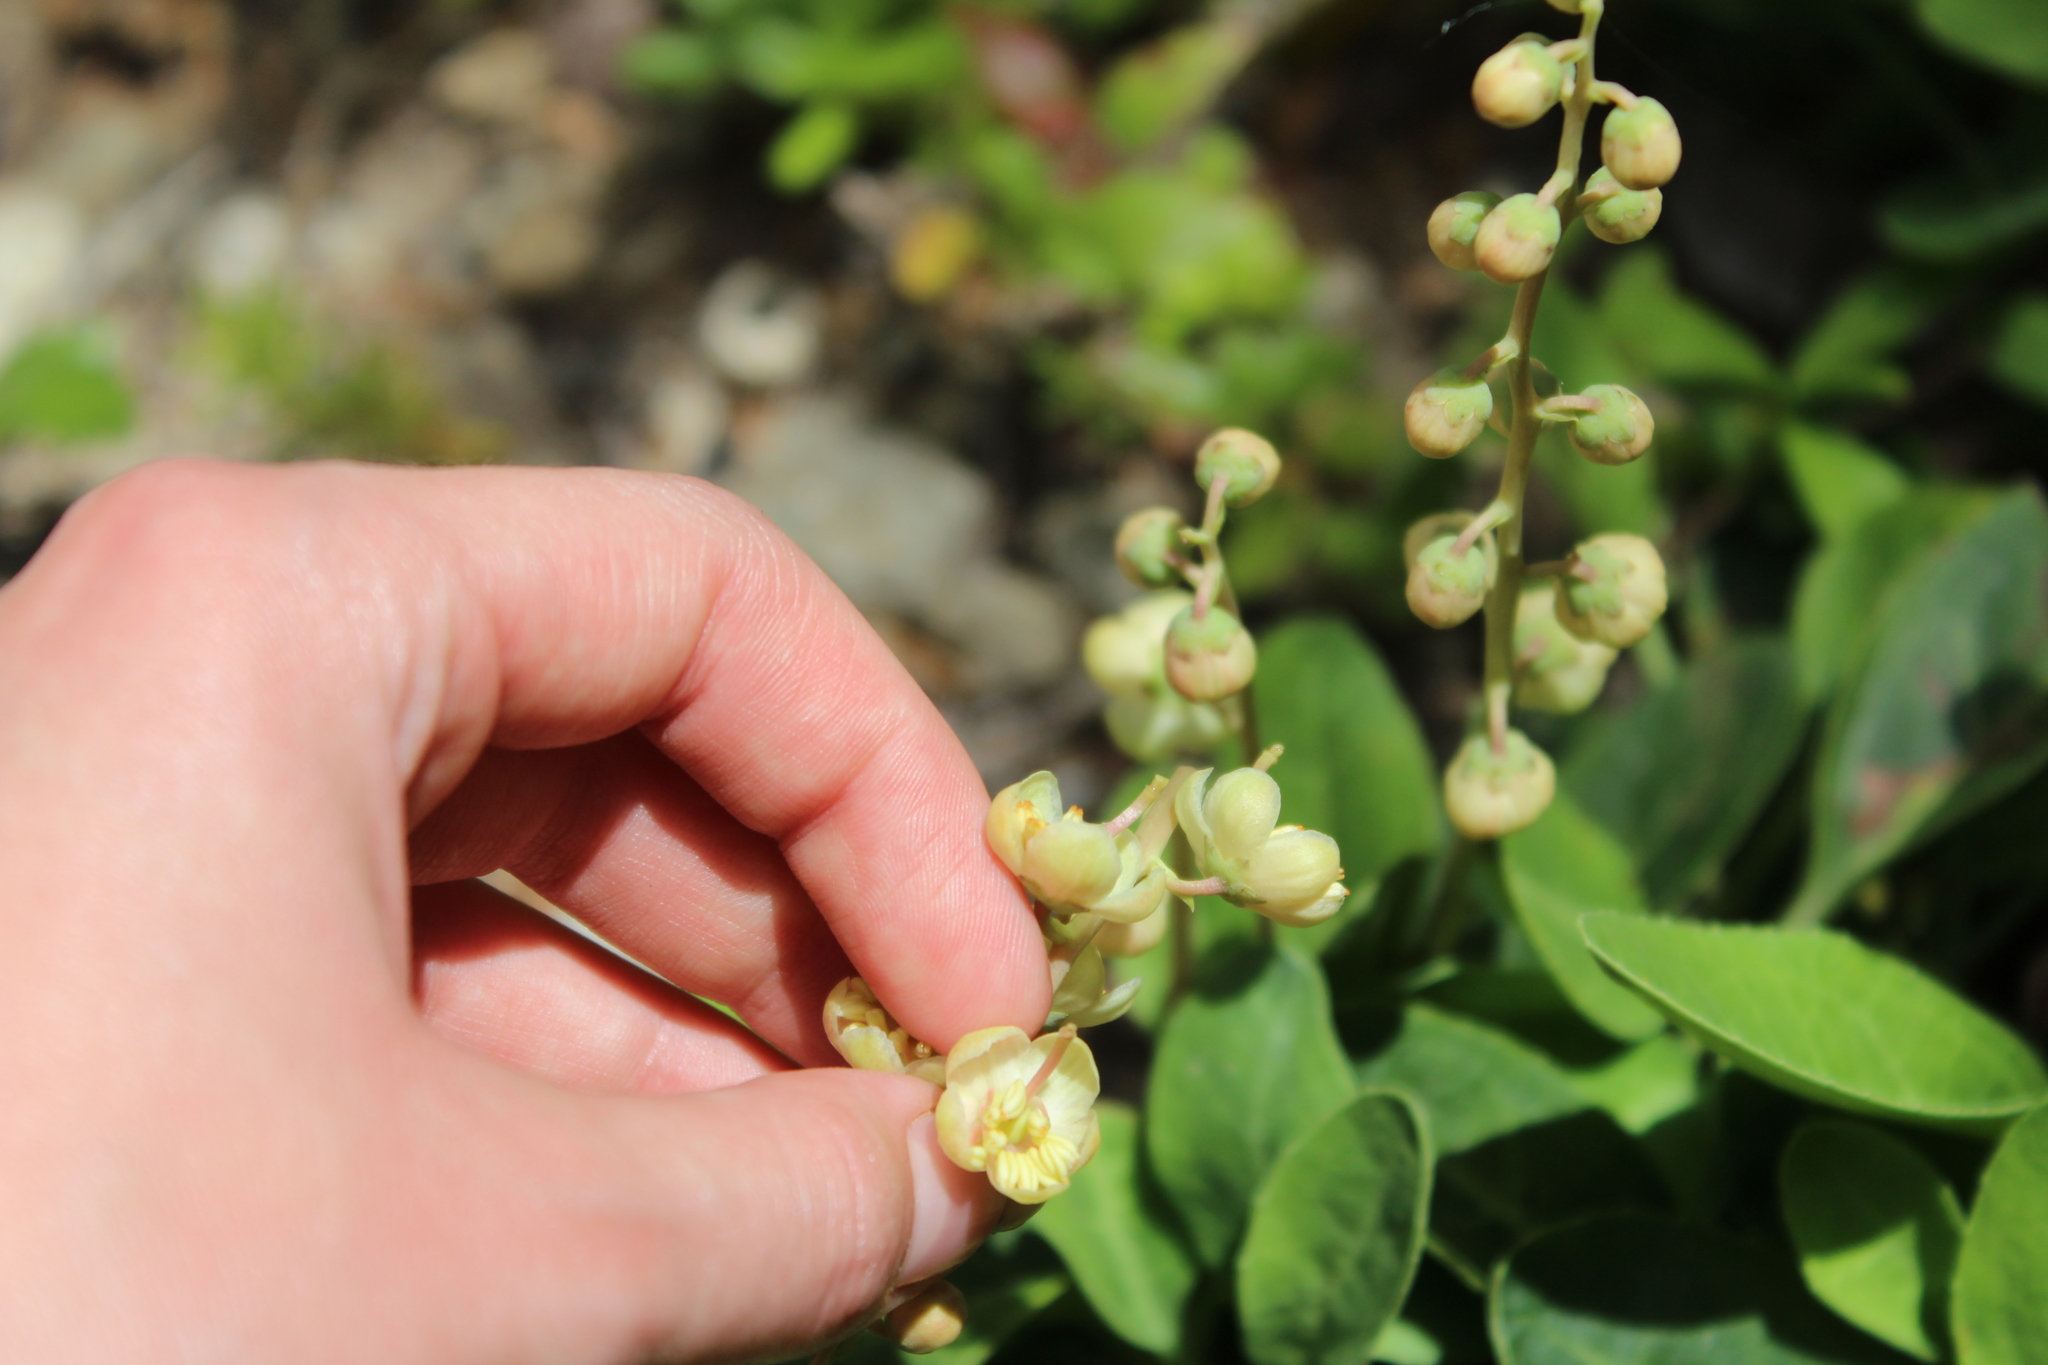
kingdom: Plantae
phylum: Tracheophyta
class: Magnoliopsida
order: Ericales
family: Ericaceae
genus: Pyrola
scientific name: Pyrola dentata
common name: Tooth-leaved wintergreen
